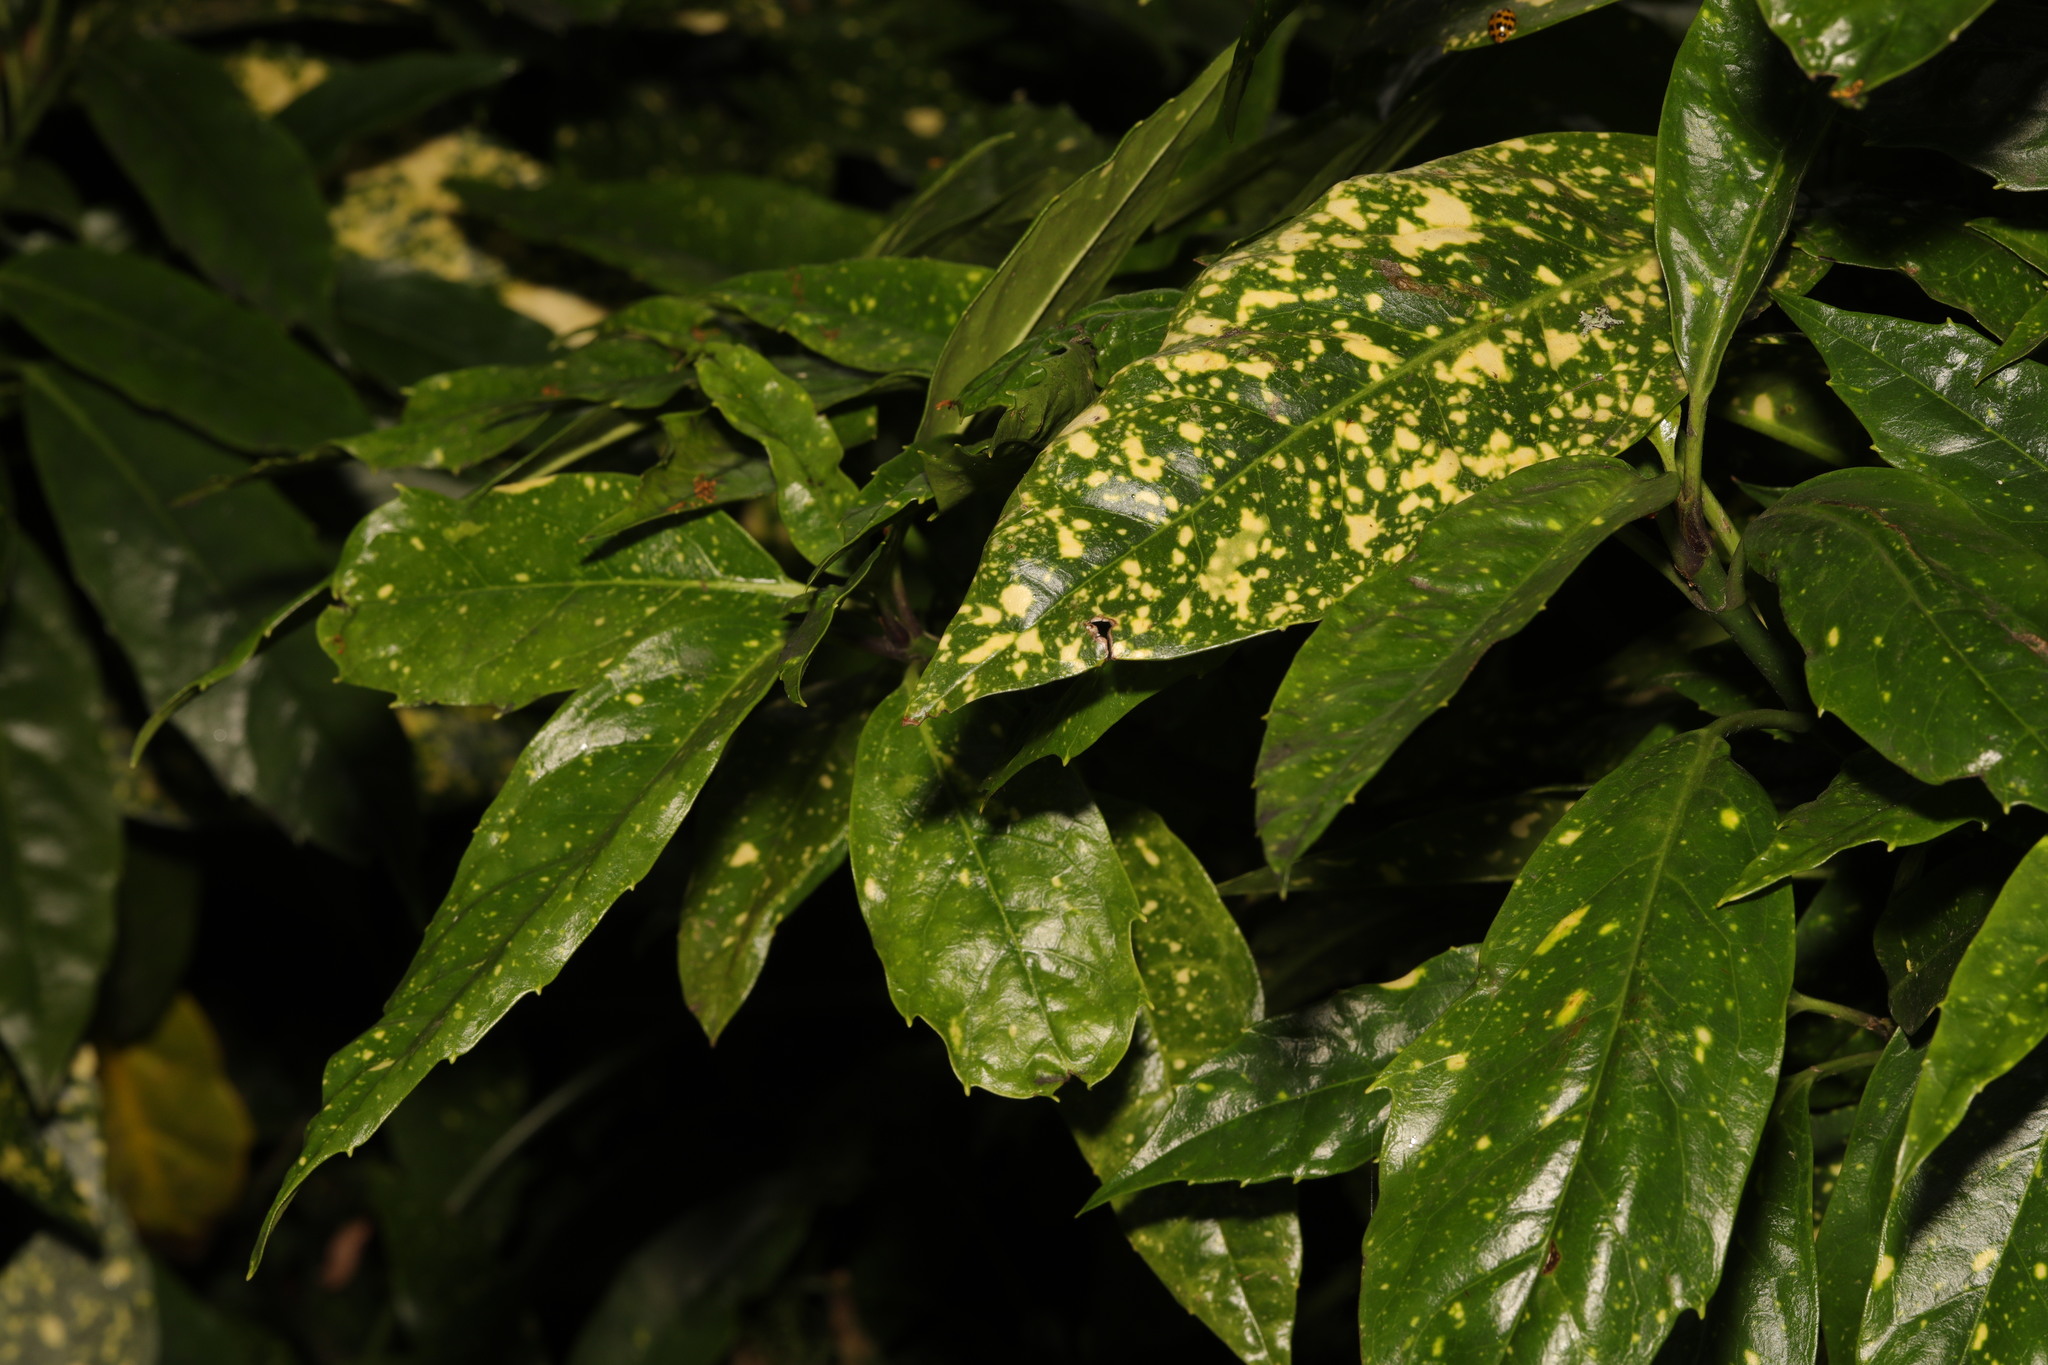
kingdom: Plantae
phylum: Tracheophyta
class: Magnoliopsida
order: Garryales
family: Garryaceae
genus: Aucuba
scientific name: Aucuba japonica
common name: Spotted-laurel
